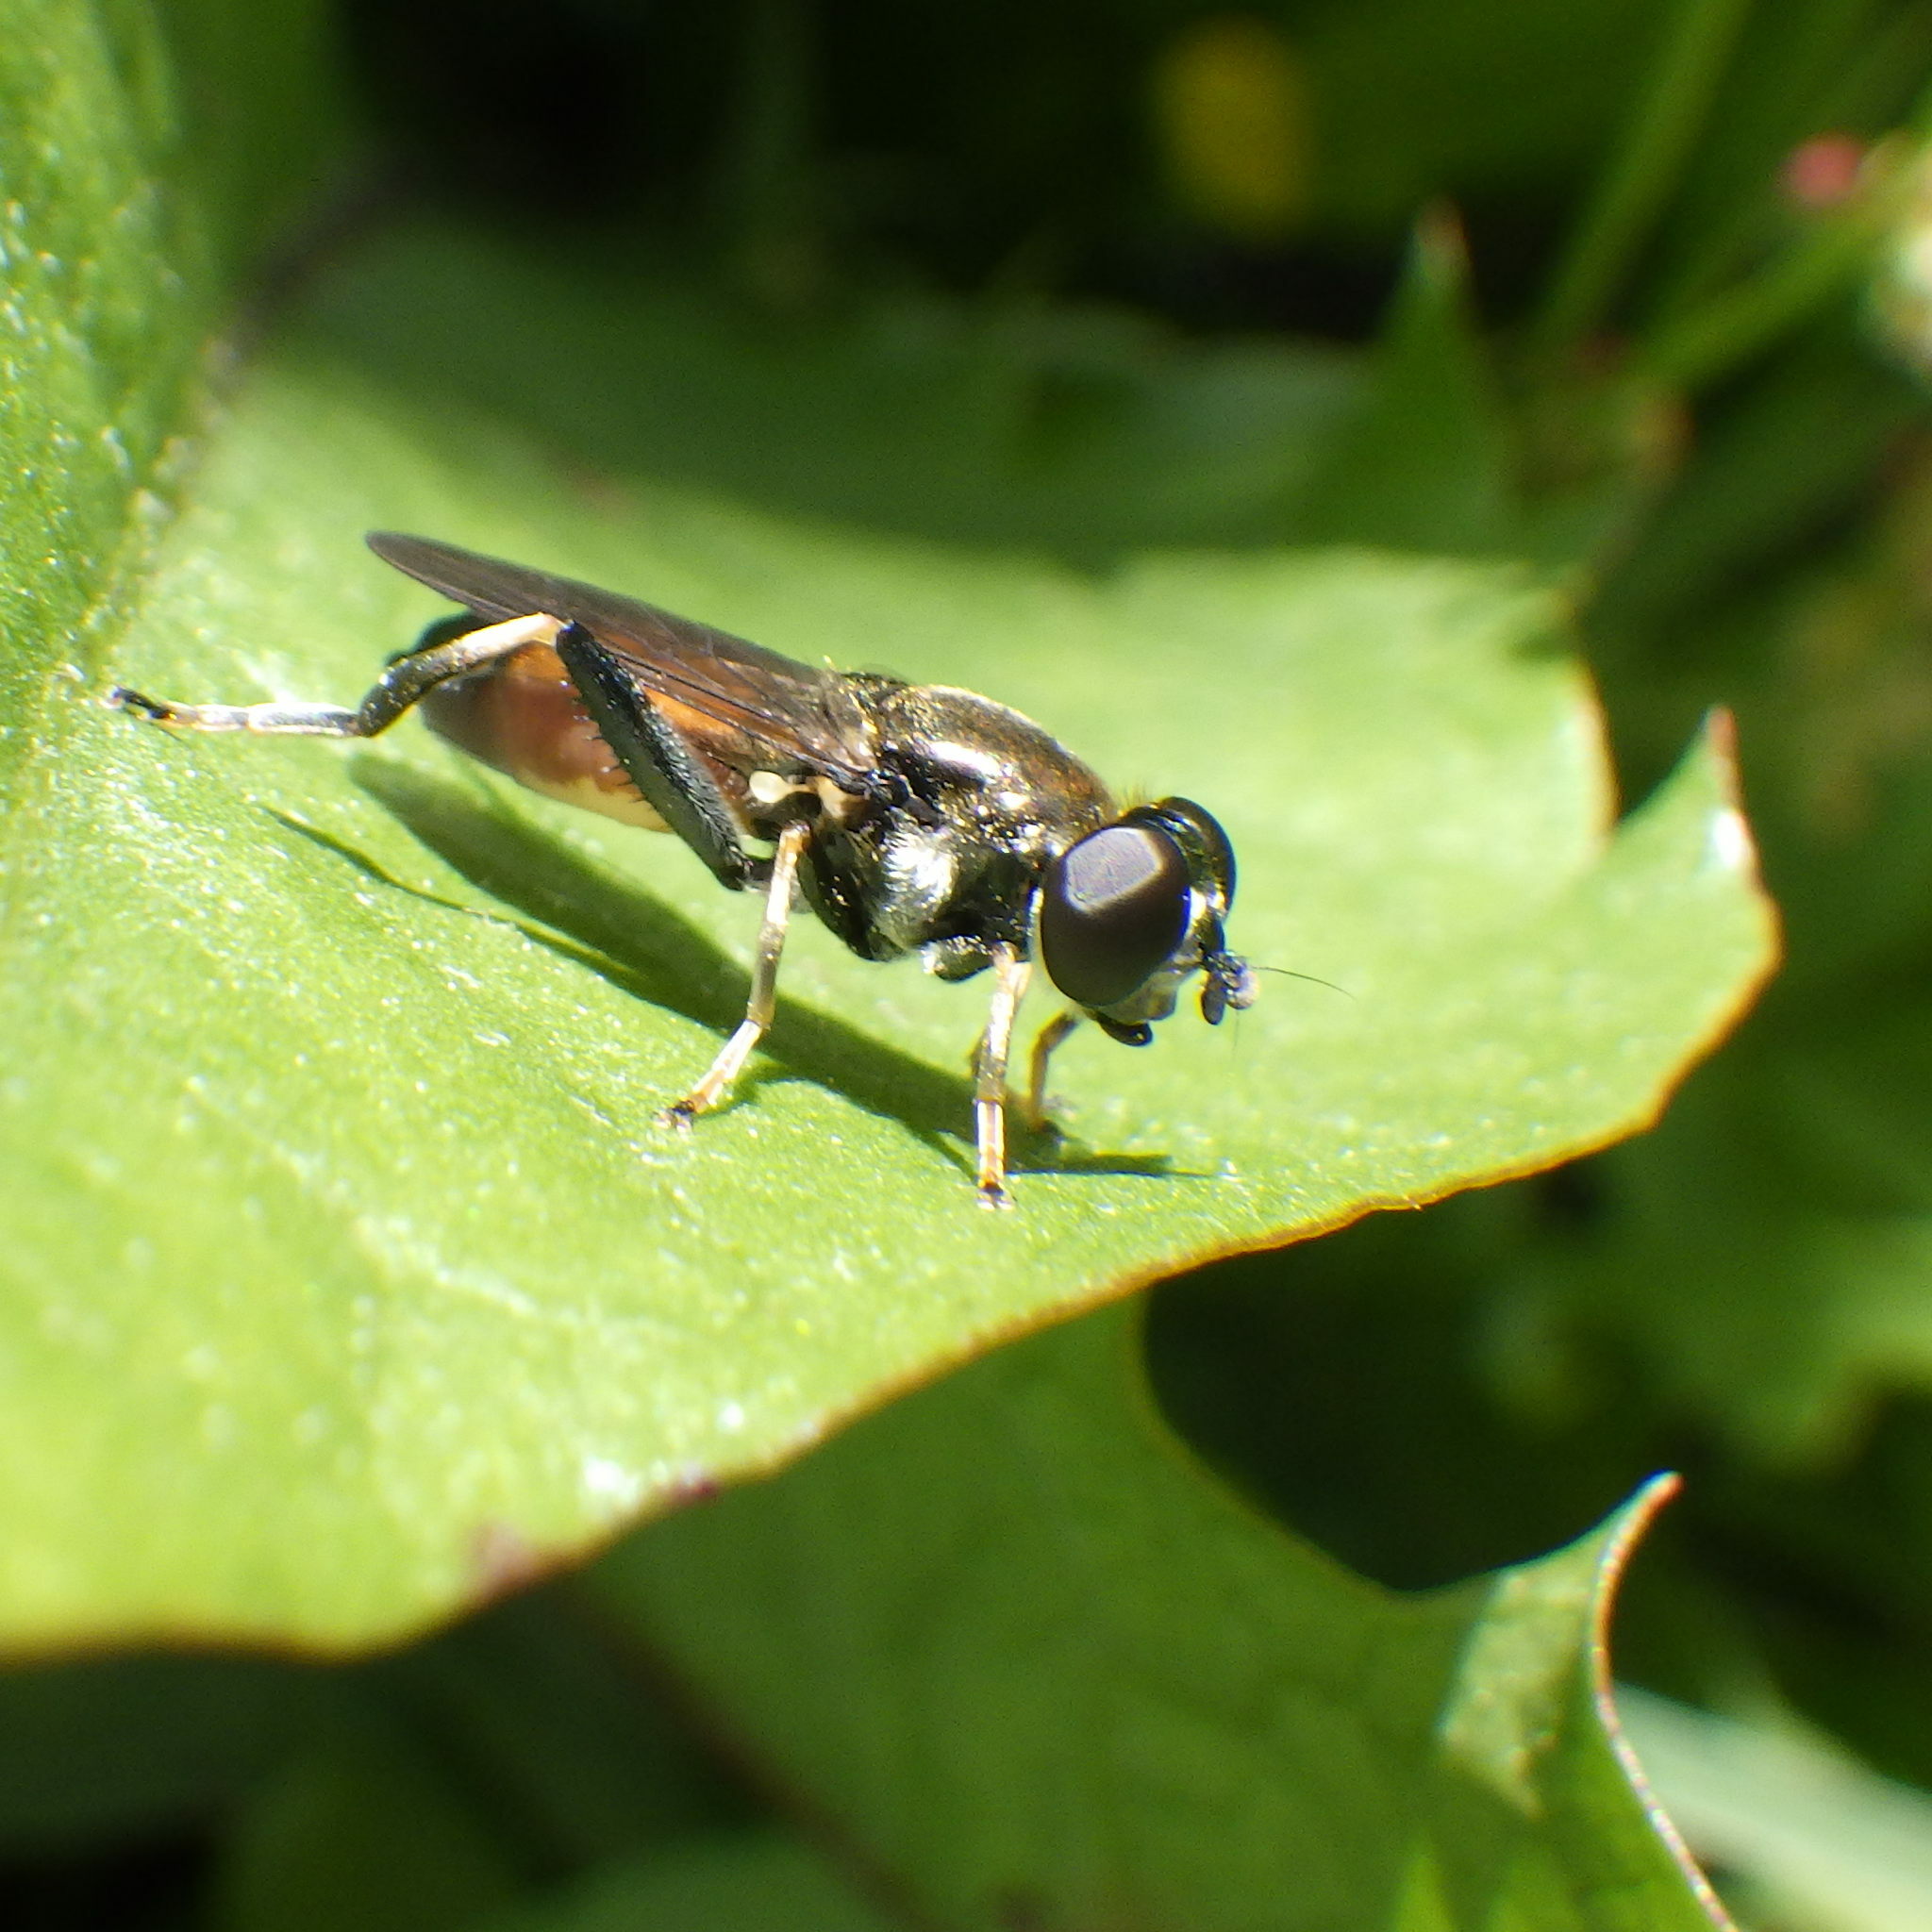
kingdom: Animalia
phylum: Arthropoda
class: Insecta
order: Diptera
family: Syrphidae
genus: Xylota
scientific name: Xylota segnis
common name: Brown-toed forest fly
